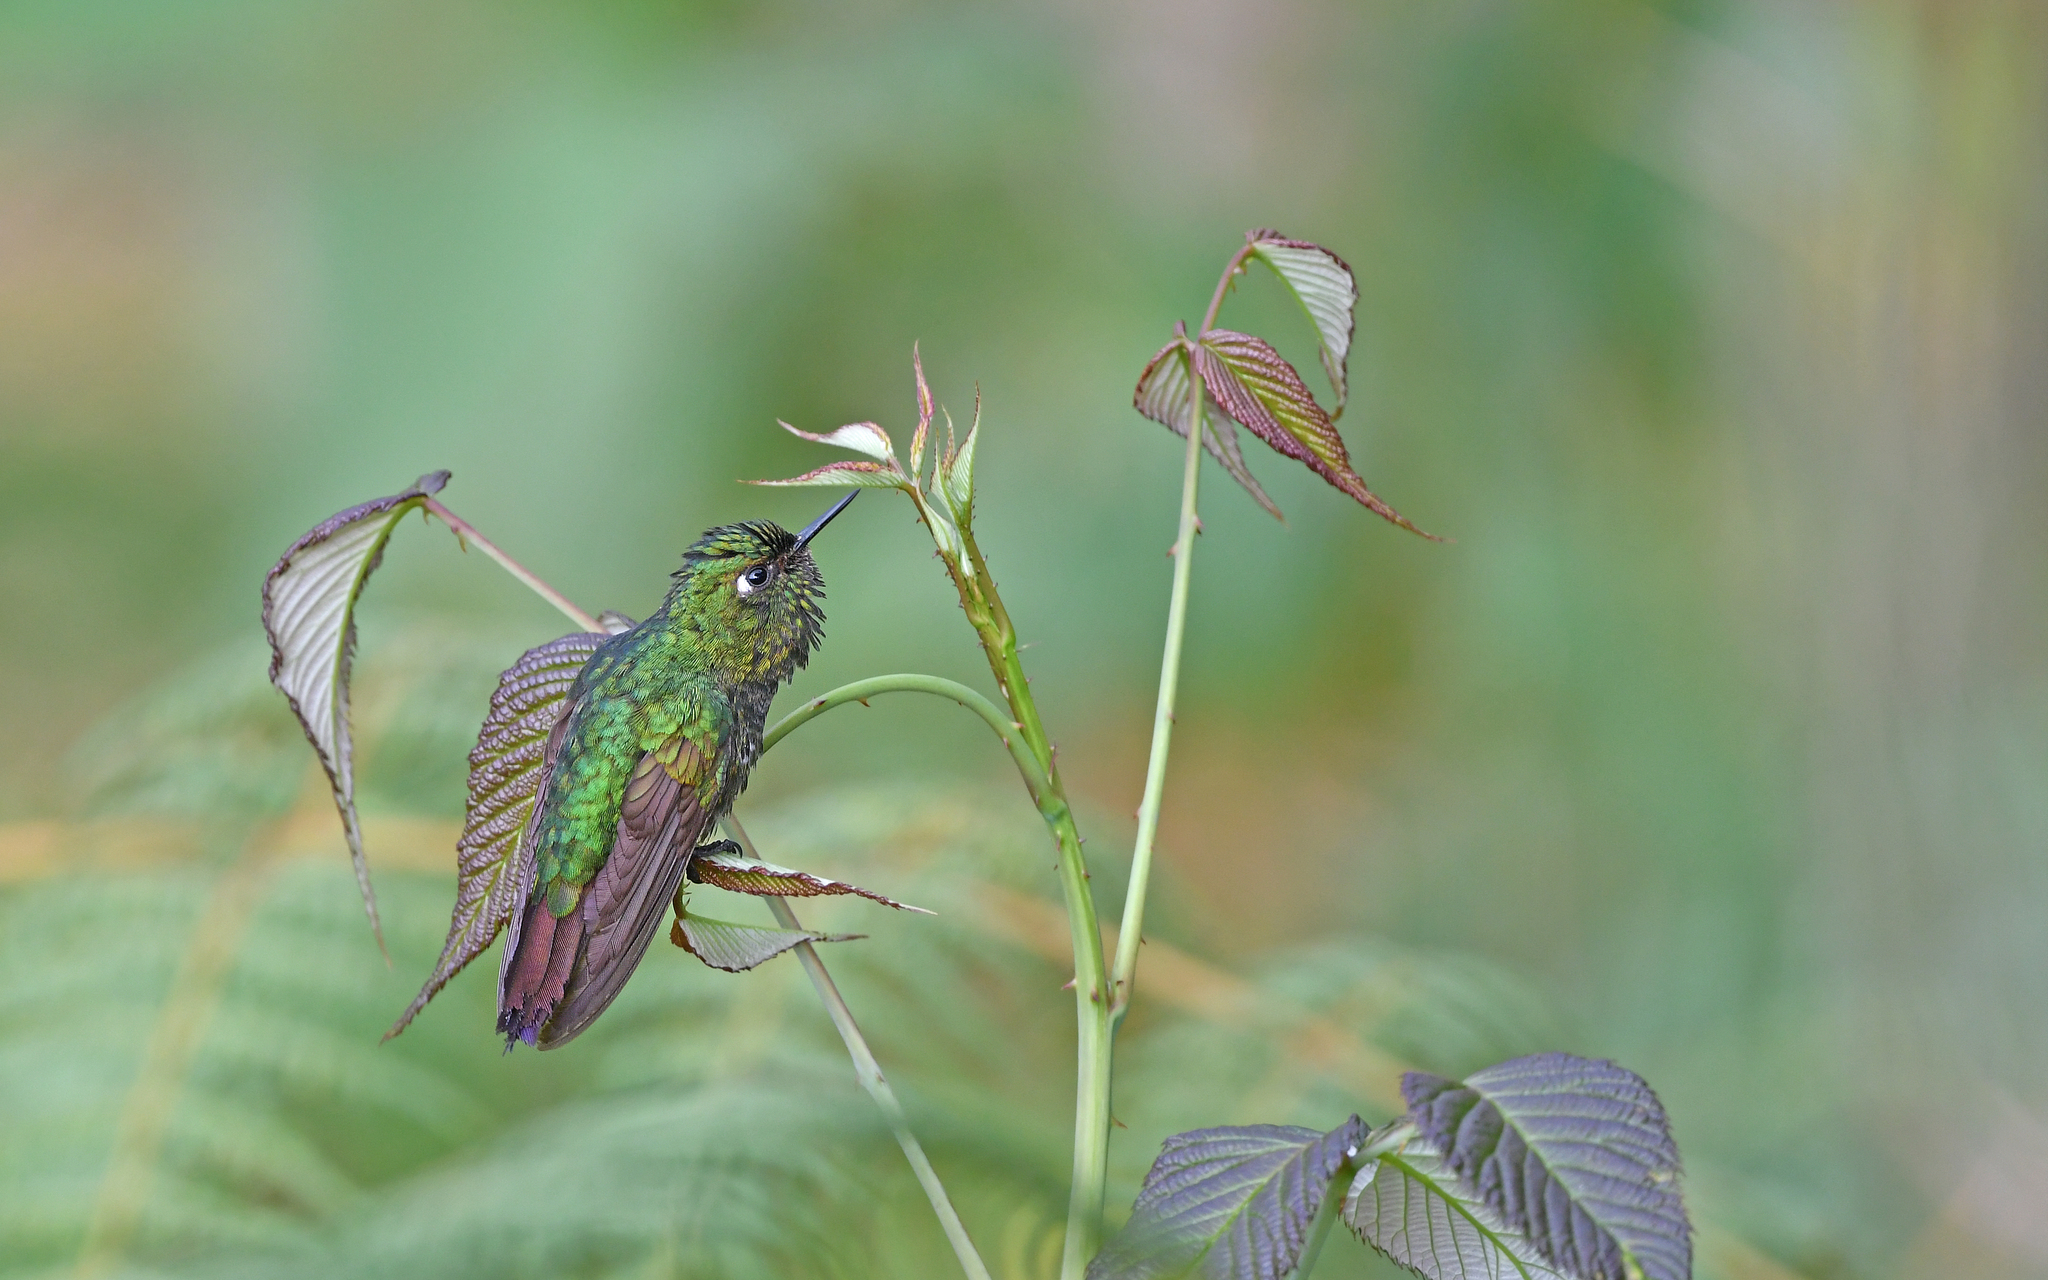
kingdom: Animalia
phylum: Chordata
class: Aves
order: Apodiformes
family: Trochilidae
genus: Metallura
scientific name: Metallura tyrianthina
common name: Tyrian metaltail
